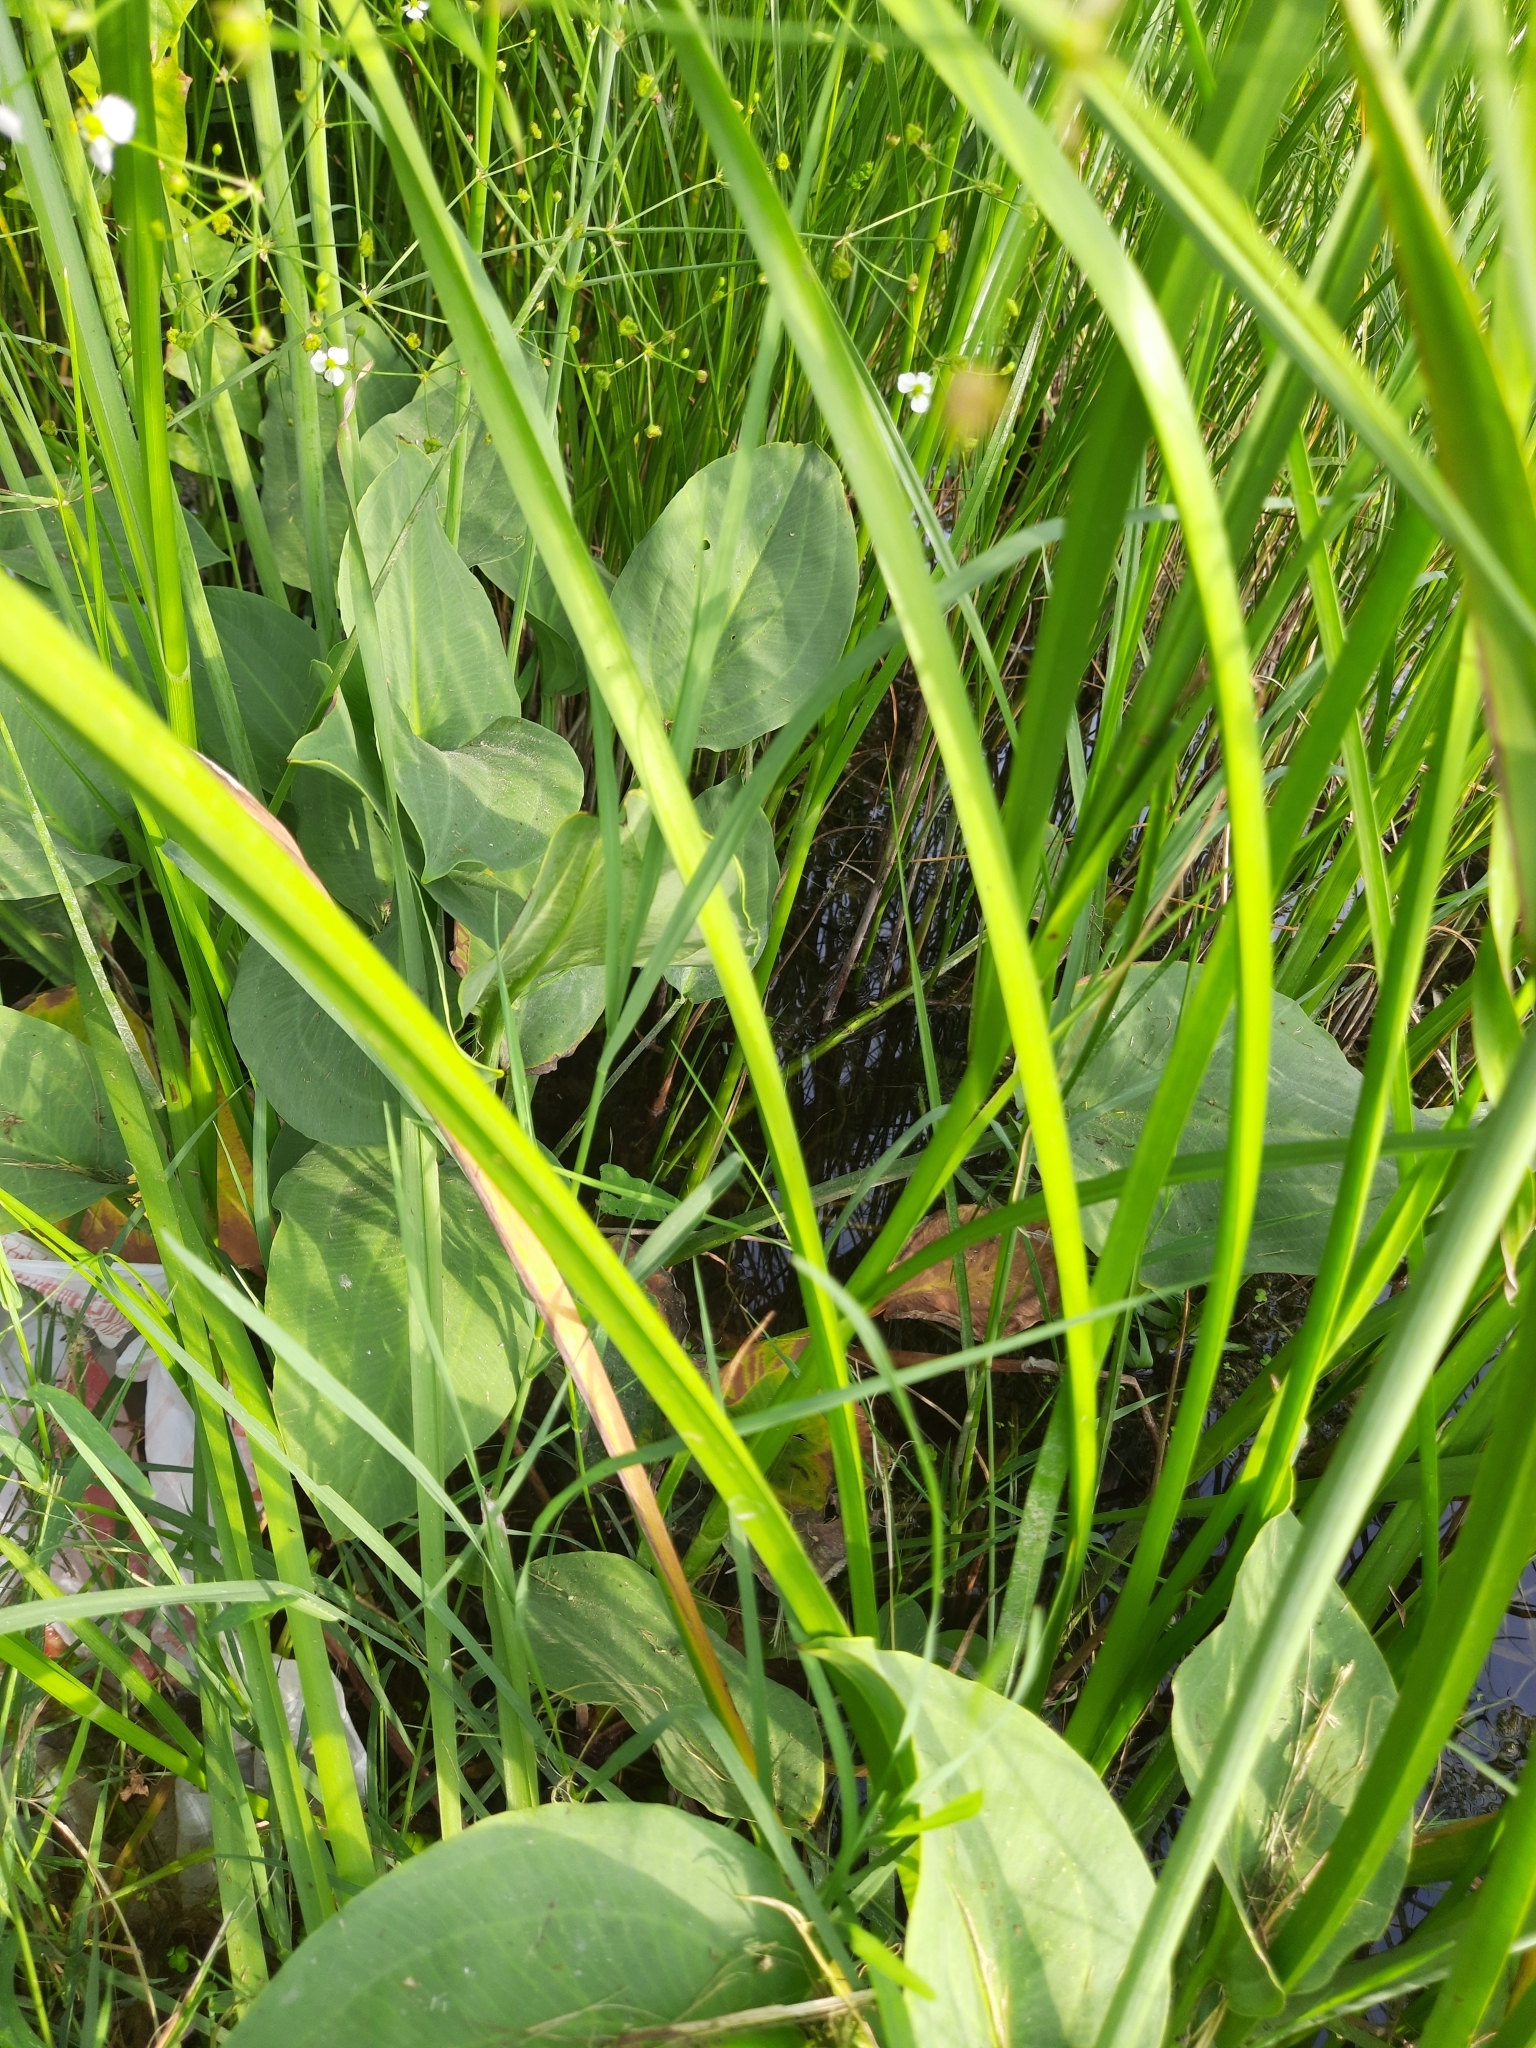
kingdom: Plantae
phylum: Tracheophyta
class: Liliopsida
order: Alismatales
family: Alismataceae
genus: Alisma
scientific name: Alisma plantago-aquatica
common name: Water-plantain
